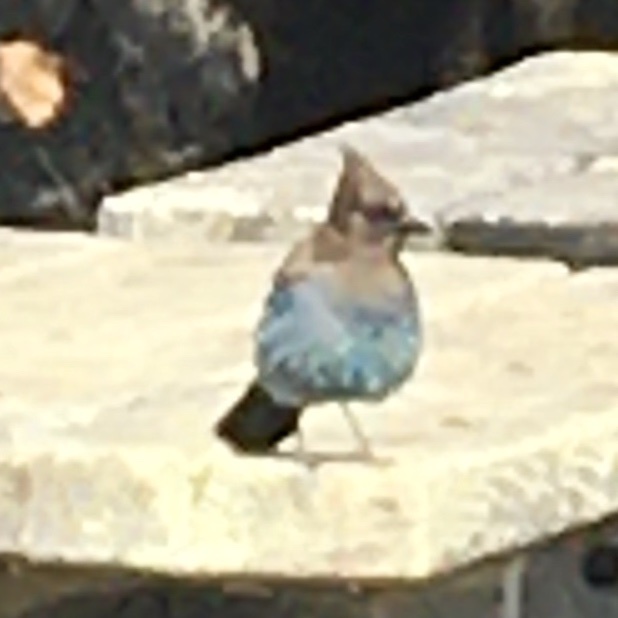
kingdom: Animalia
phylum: Chordata
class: Aves
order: Passeriformes
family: Corvidae
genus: Cyanocitta
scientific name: Cyanocitta stelleri
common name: Steller's jay
